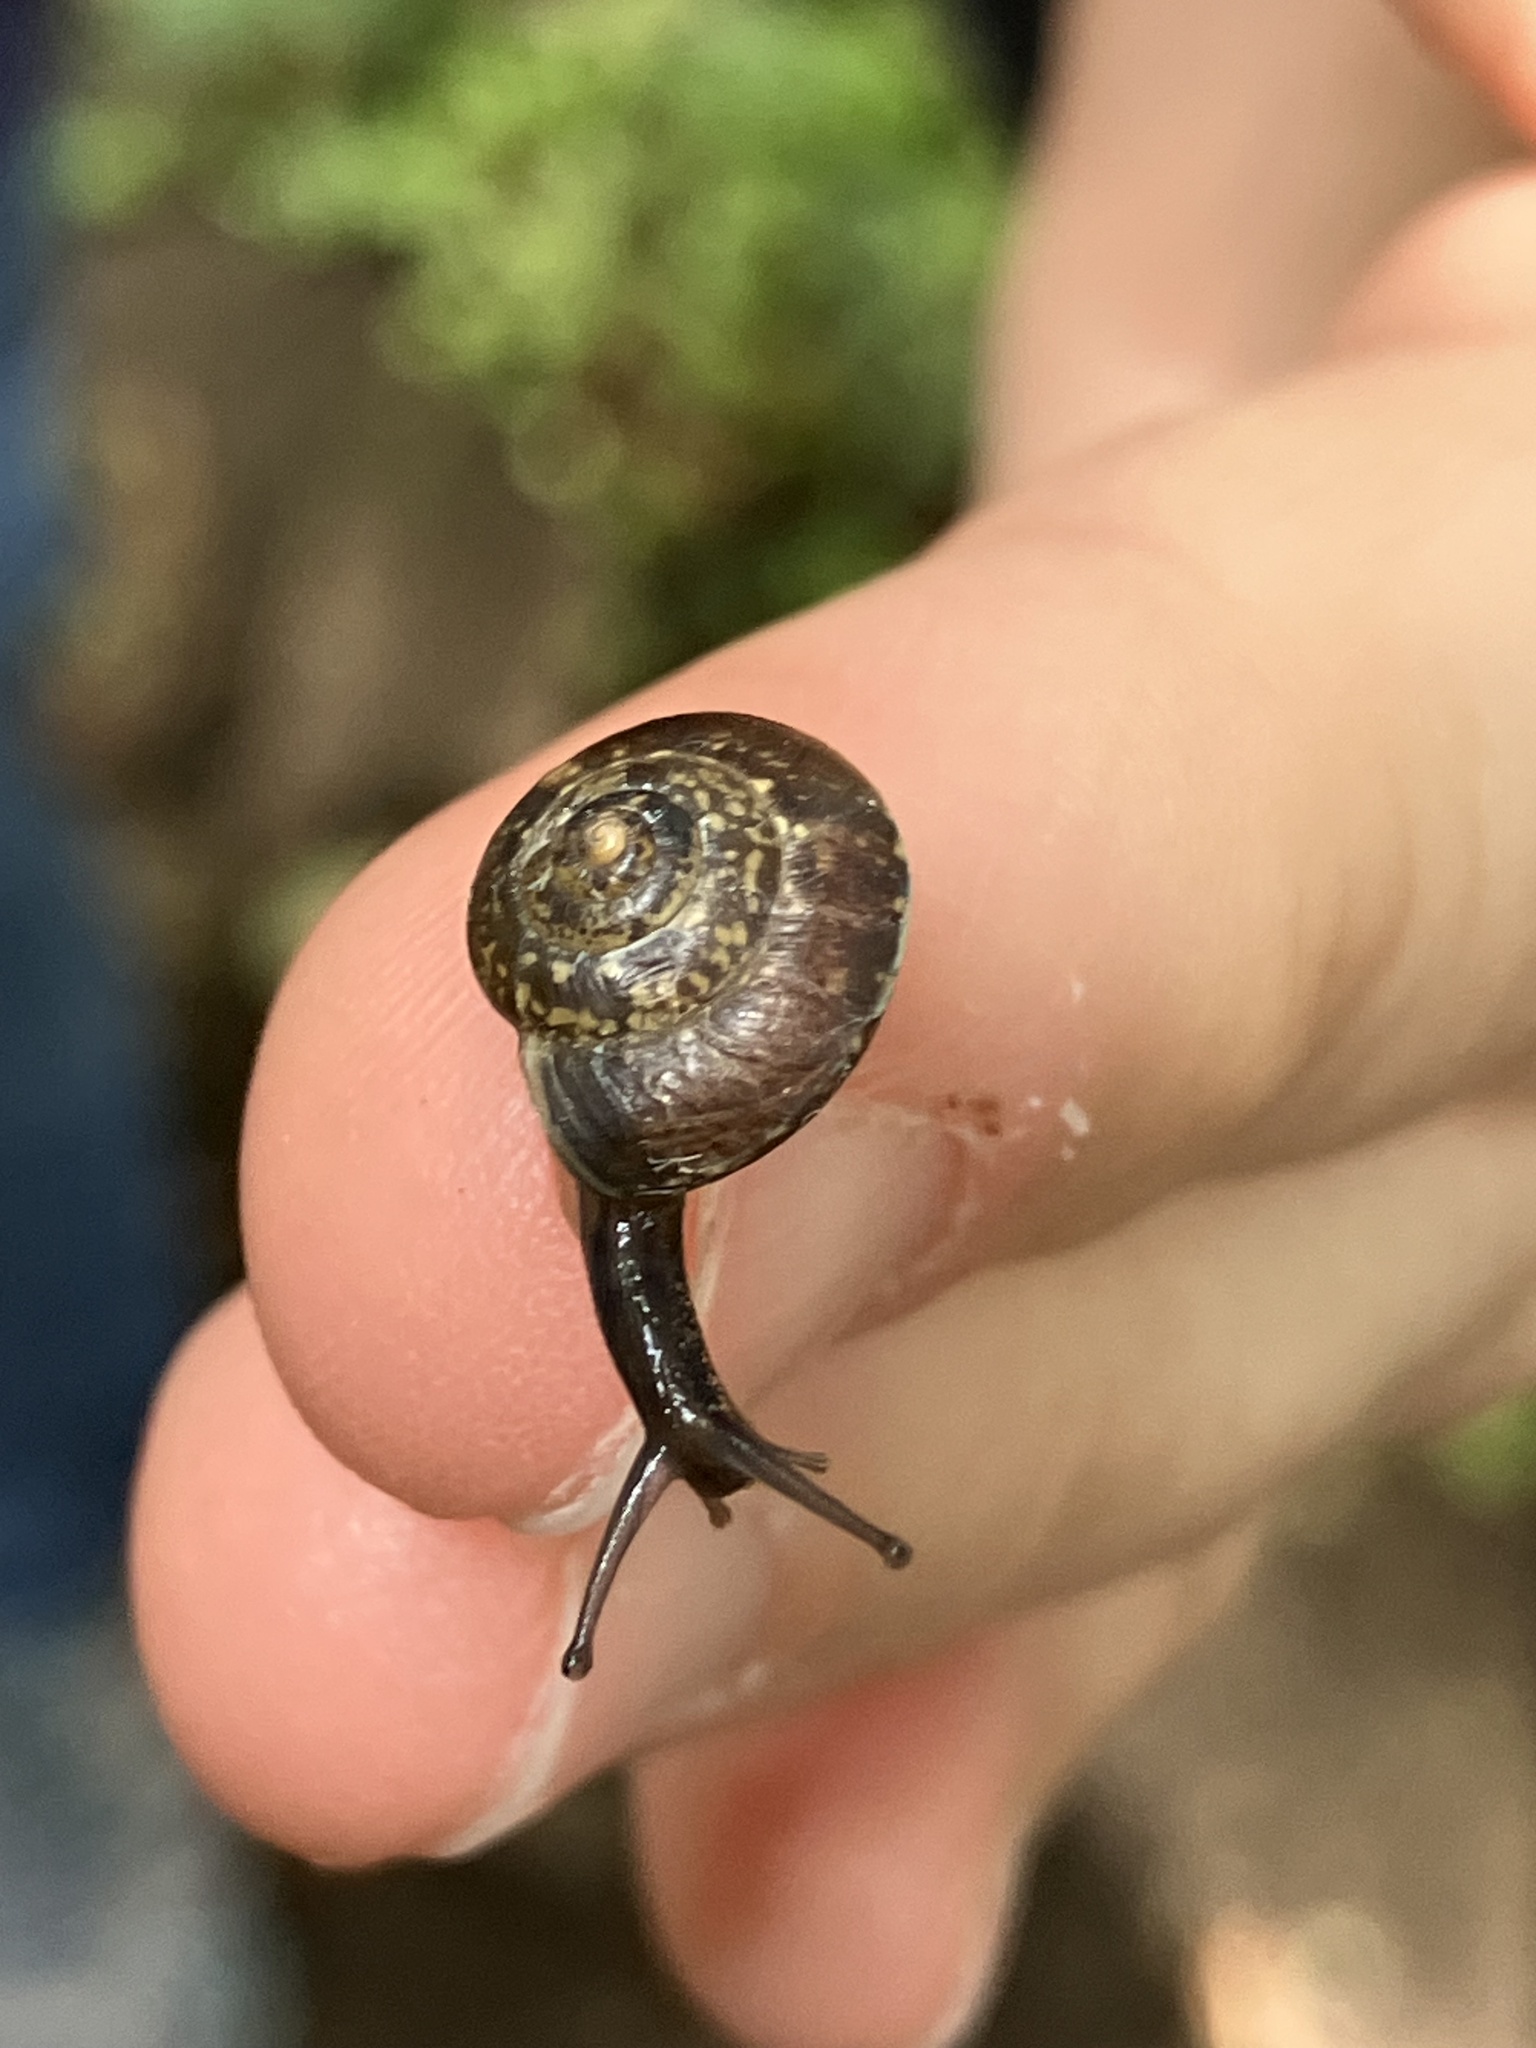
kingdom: Animalia
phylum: Mollusca
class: Gastropoda
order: Stylommatophora
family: Hygromiidae
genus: Hygromia
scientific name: Hygromia cinctella
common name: Girdled snail
